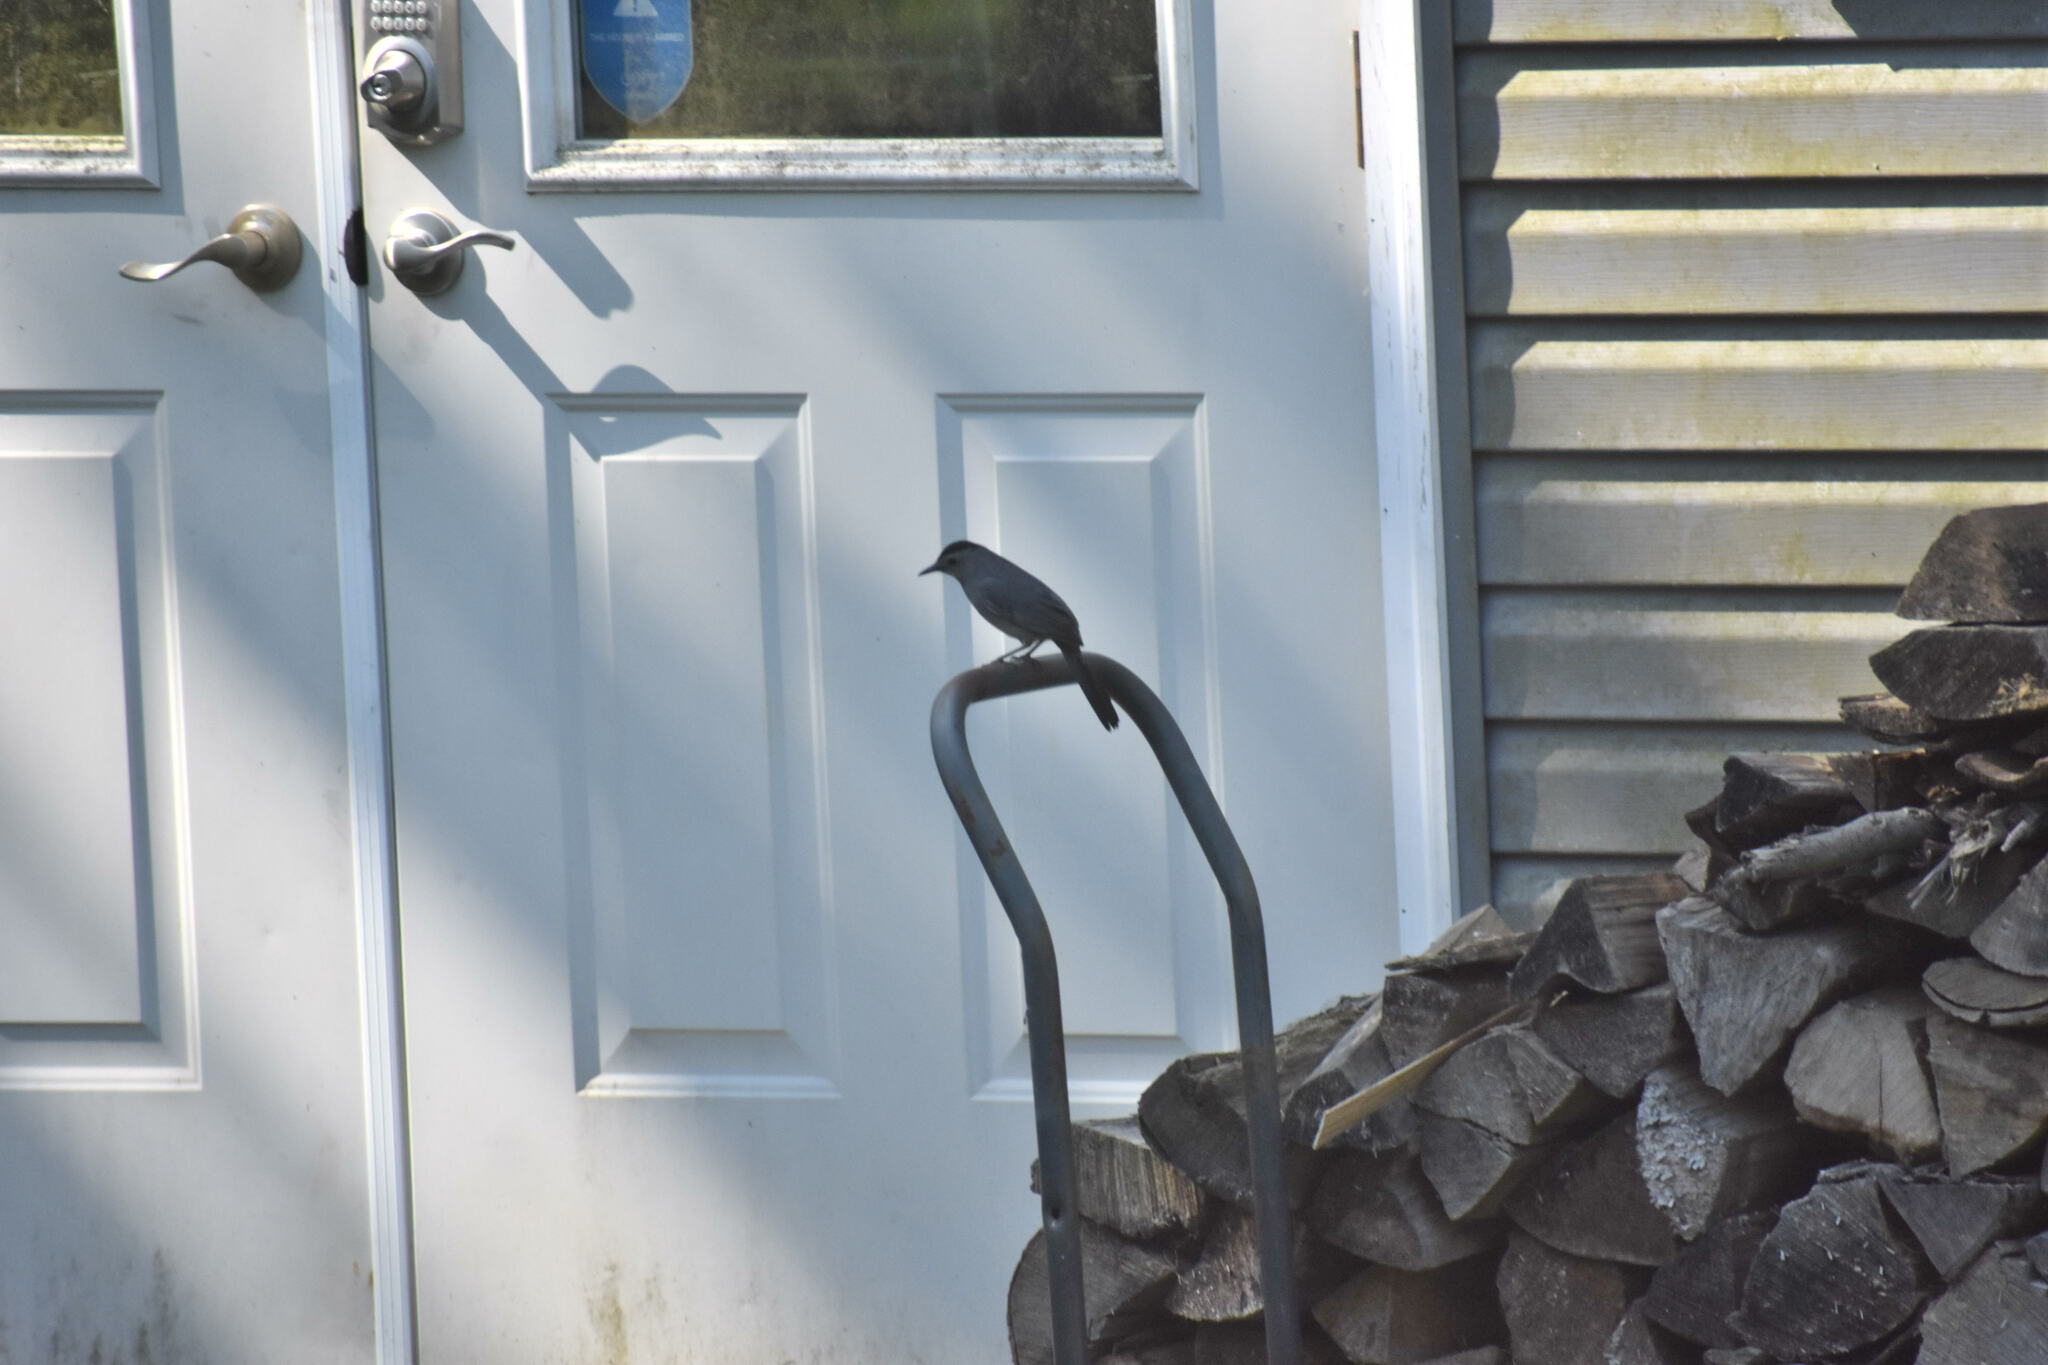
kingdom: Animalia
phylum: Chordata
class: Aves
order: Passeriformes
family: Mimidae
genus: Dumetella
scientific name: Dumetella carolinensis
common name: Gray catbird
